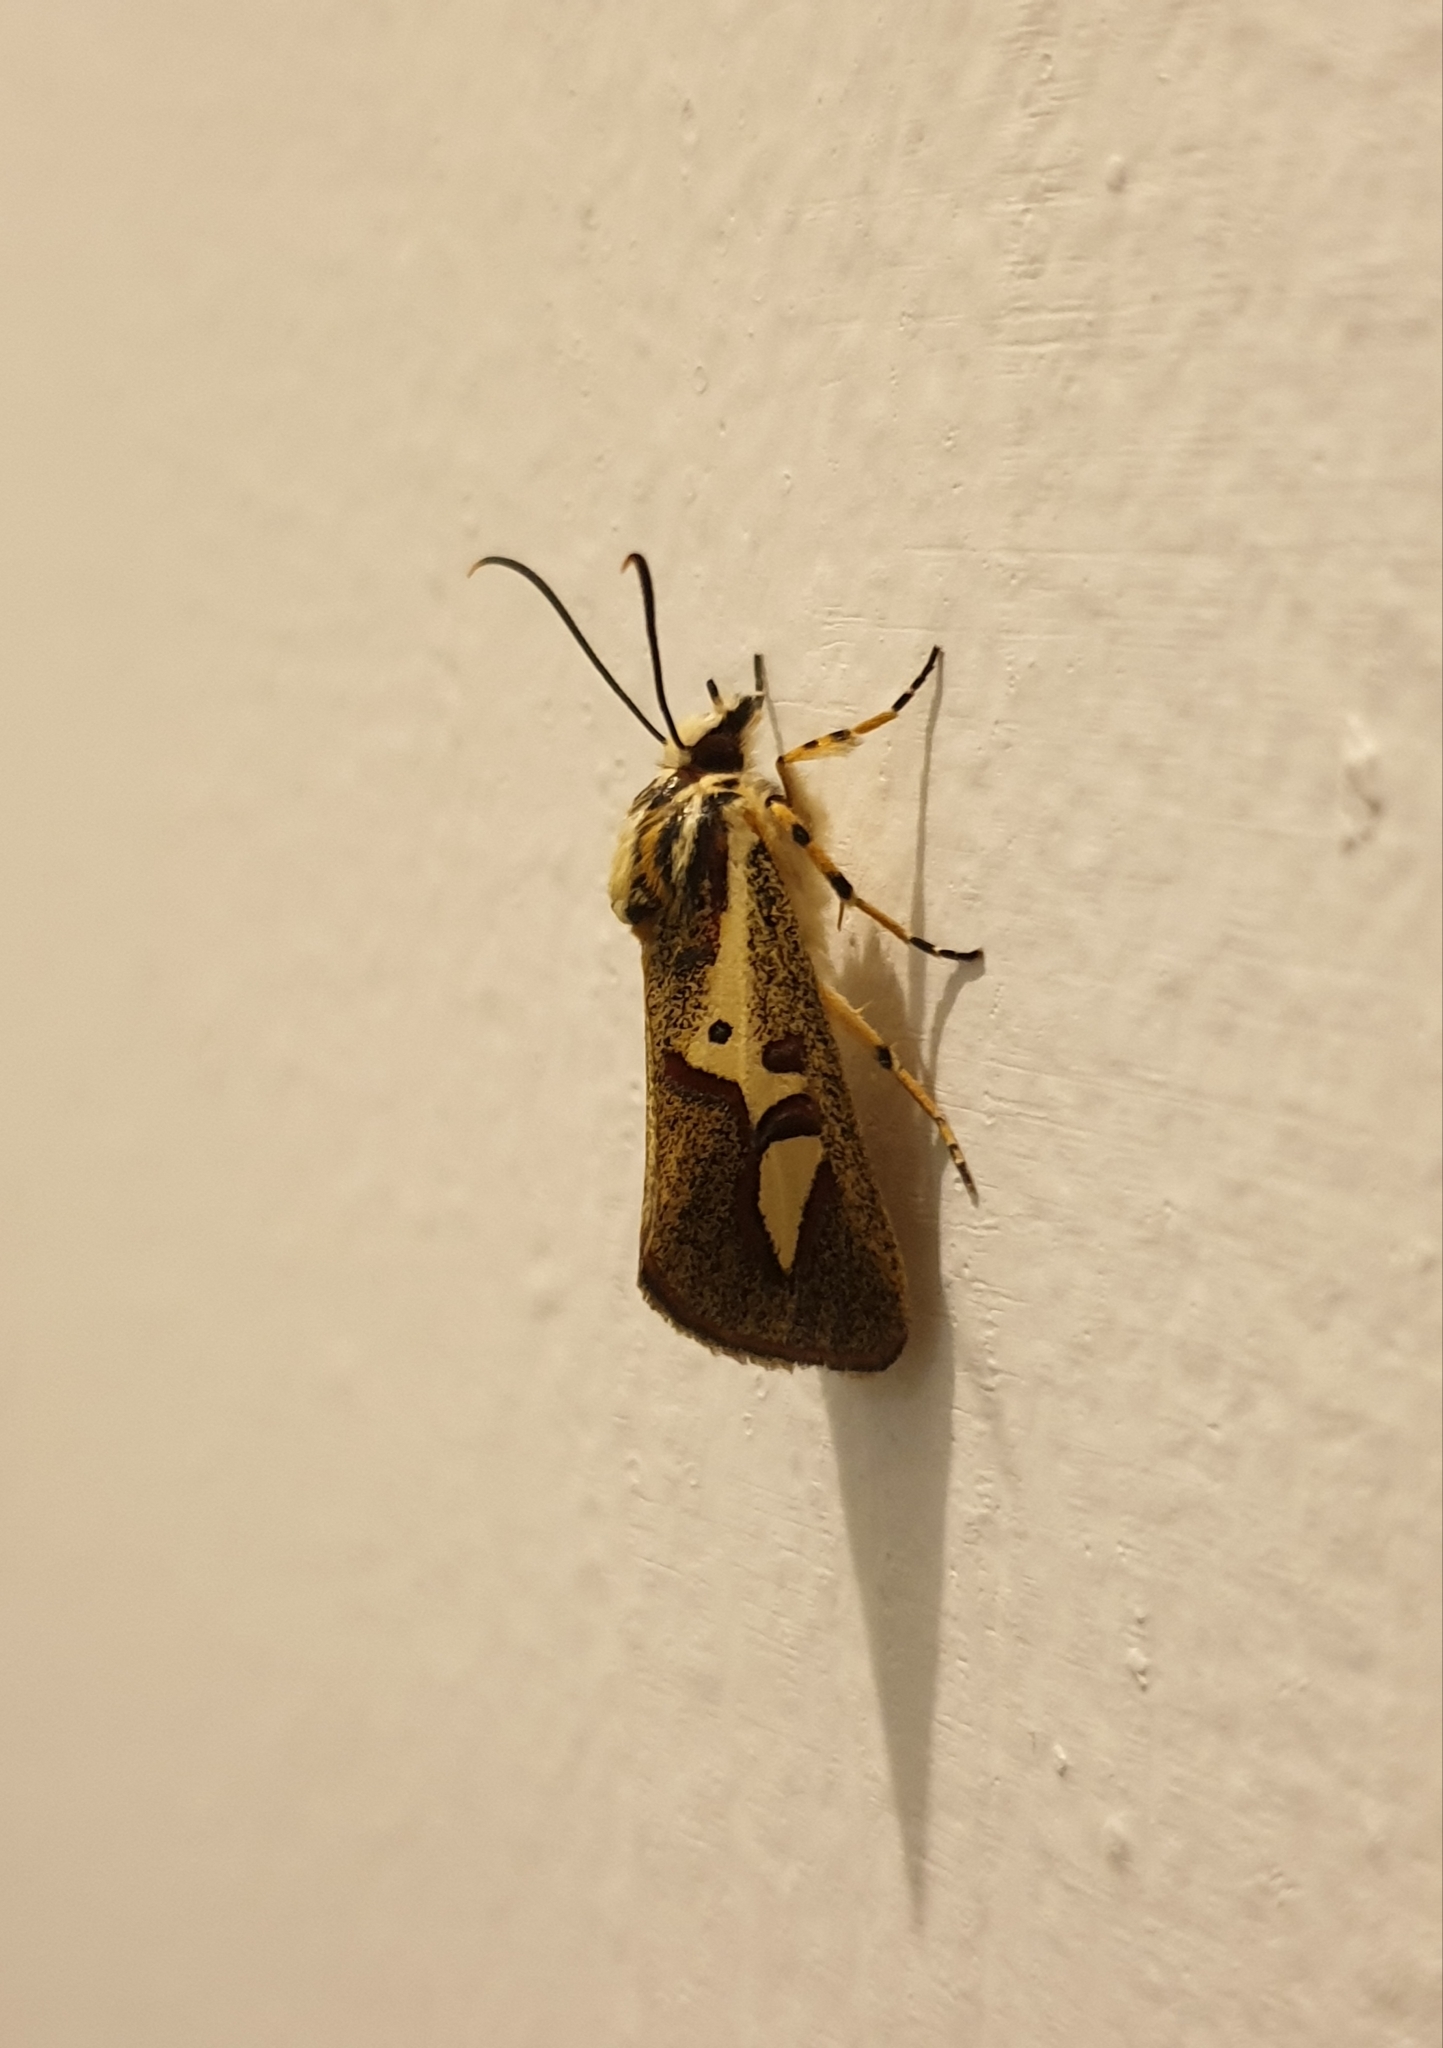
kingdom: Animalia
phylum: Arthropoda
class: Insecta
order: Lepidoptera
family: Noctuidae
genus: Aegocera
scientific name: Aegocera venulia
